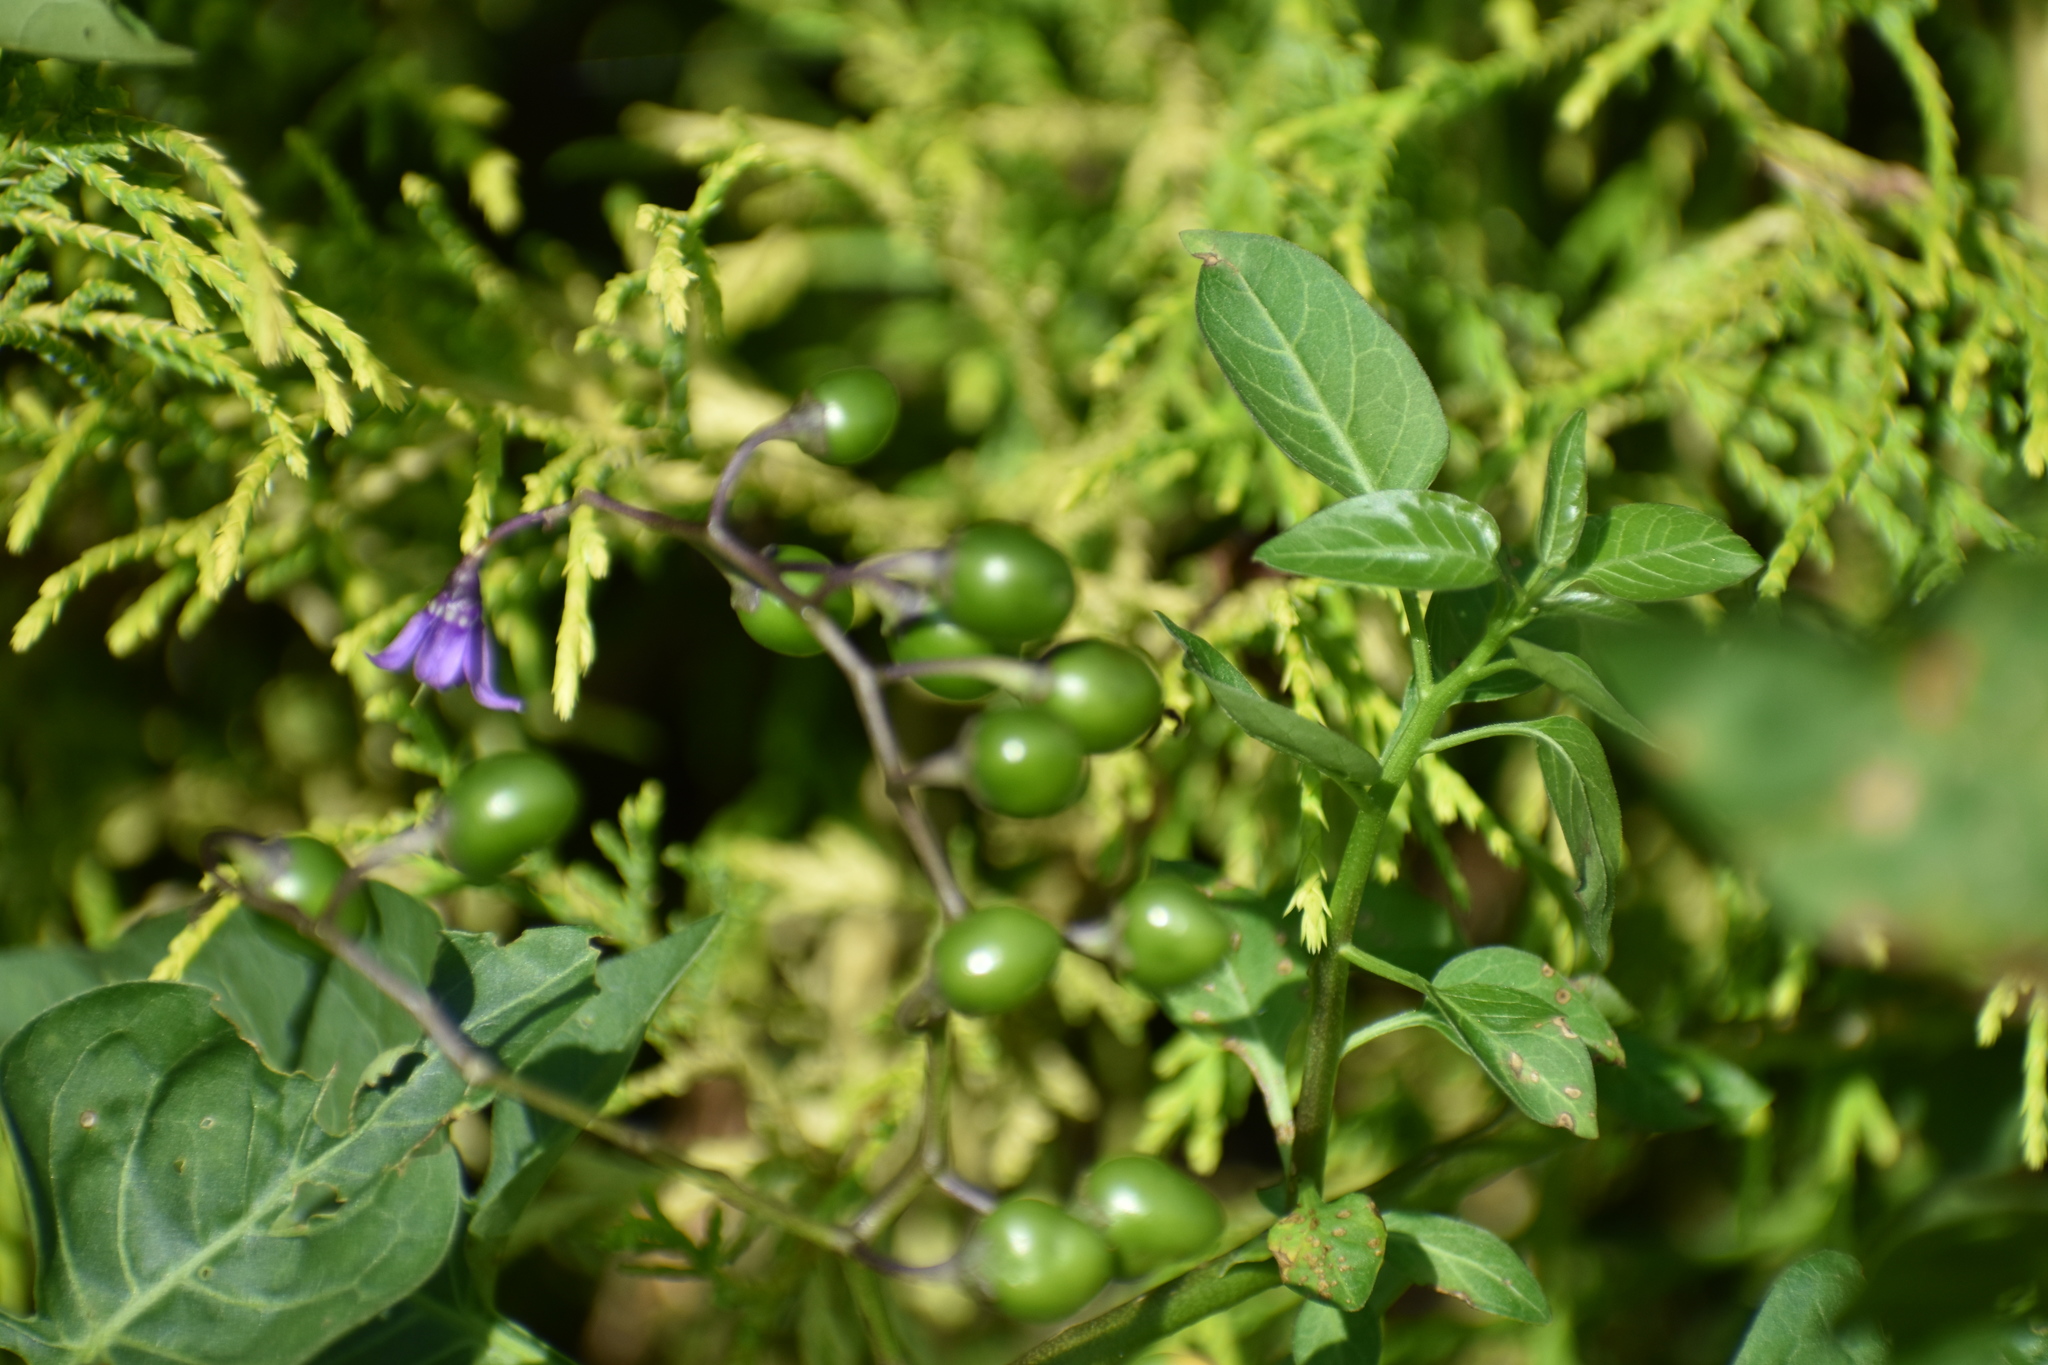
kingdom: Plantae
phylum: Tracheophyta
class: Magnoliopsida
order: Solanales
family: Solanaceae
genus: Solanum
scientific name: Solanum dulcamara
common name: Climbing nightshade
